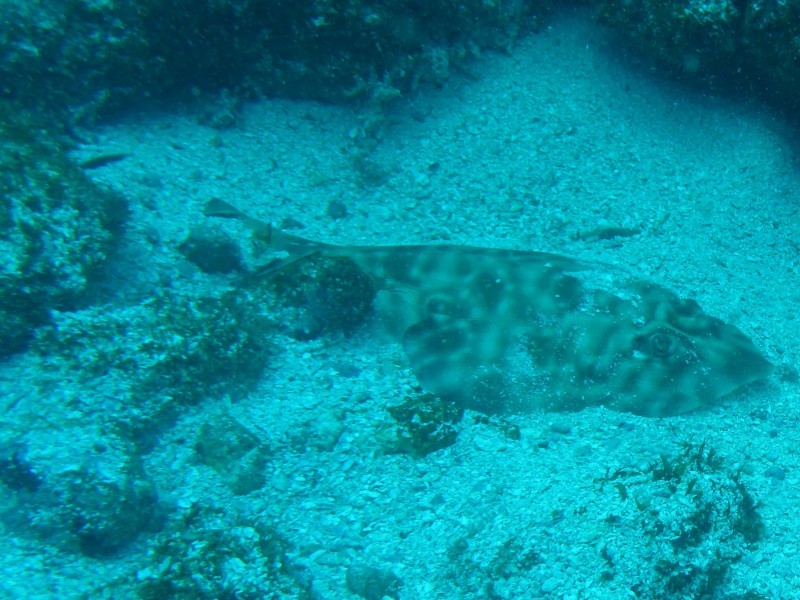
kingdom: Animalia
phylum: Chordata
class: Elasmobranchii
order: Rhinopristiformes
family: Rhinobatidae
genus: Zapteryx
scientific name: Zapteryx xyster
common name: Witch guitarfish
